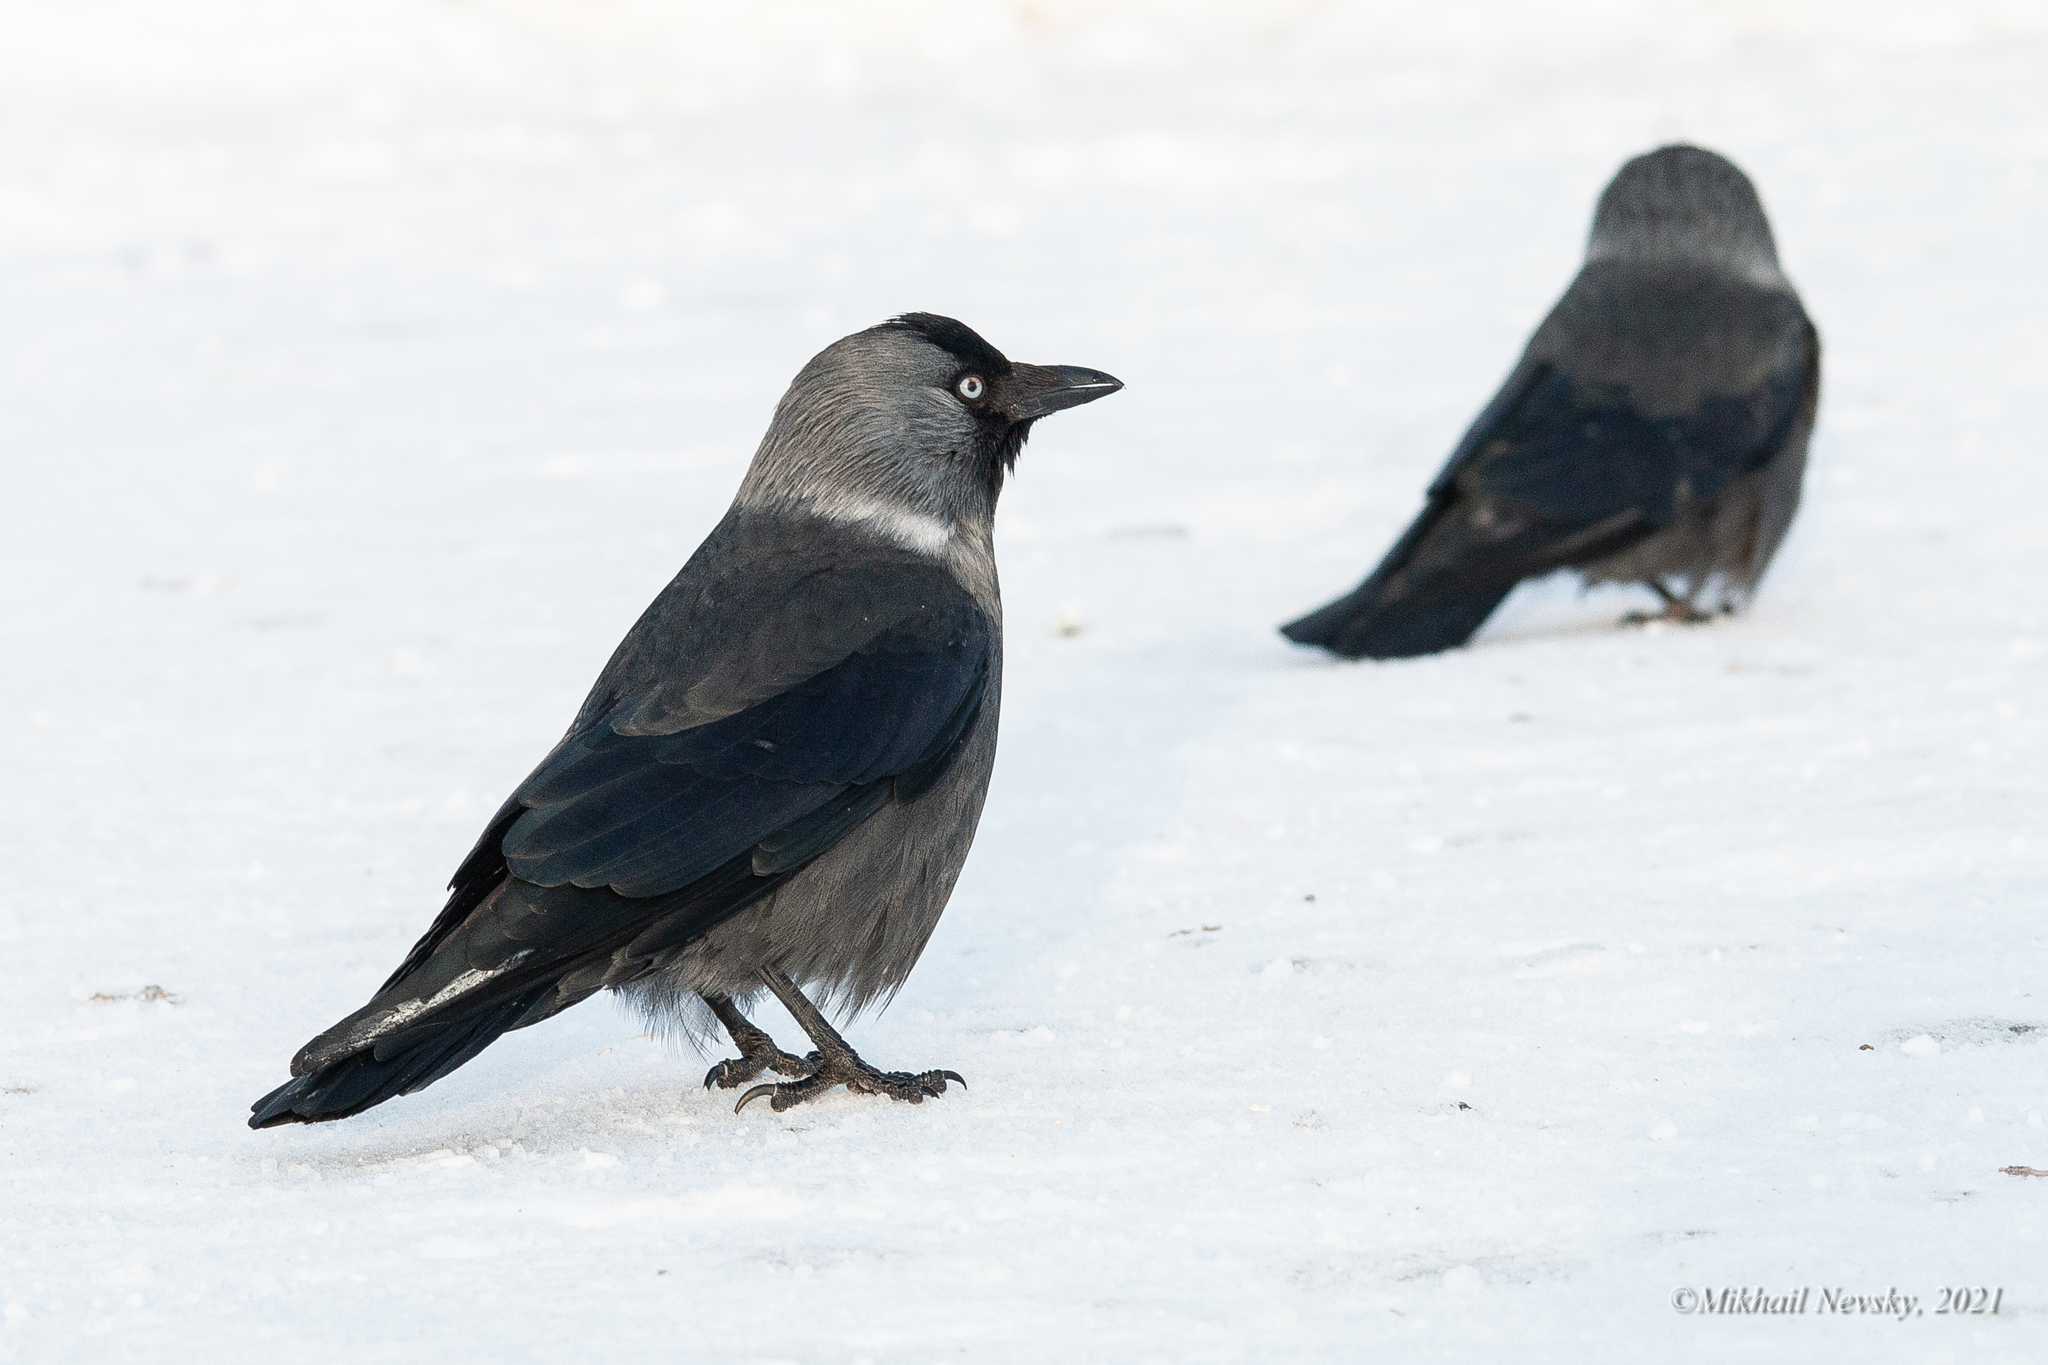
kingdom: Animalia
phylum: Chordata
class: Aves
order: Passeriformes
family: Corvidae
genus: Coloeus
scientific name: Coloeus monedula
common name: Western jackdaw
